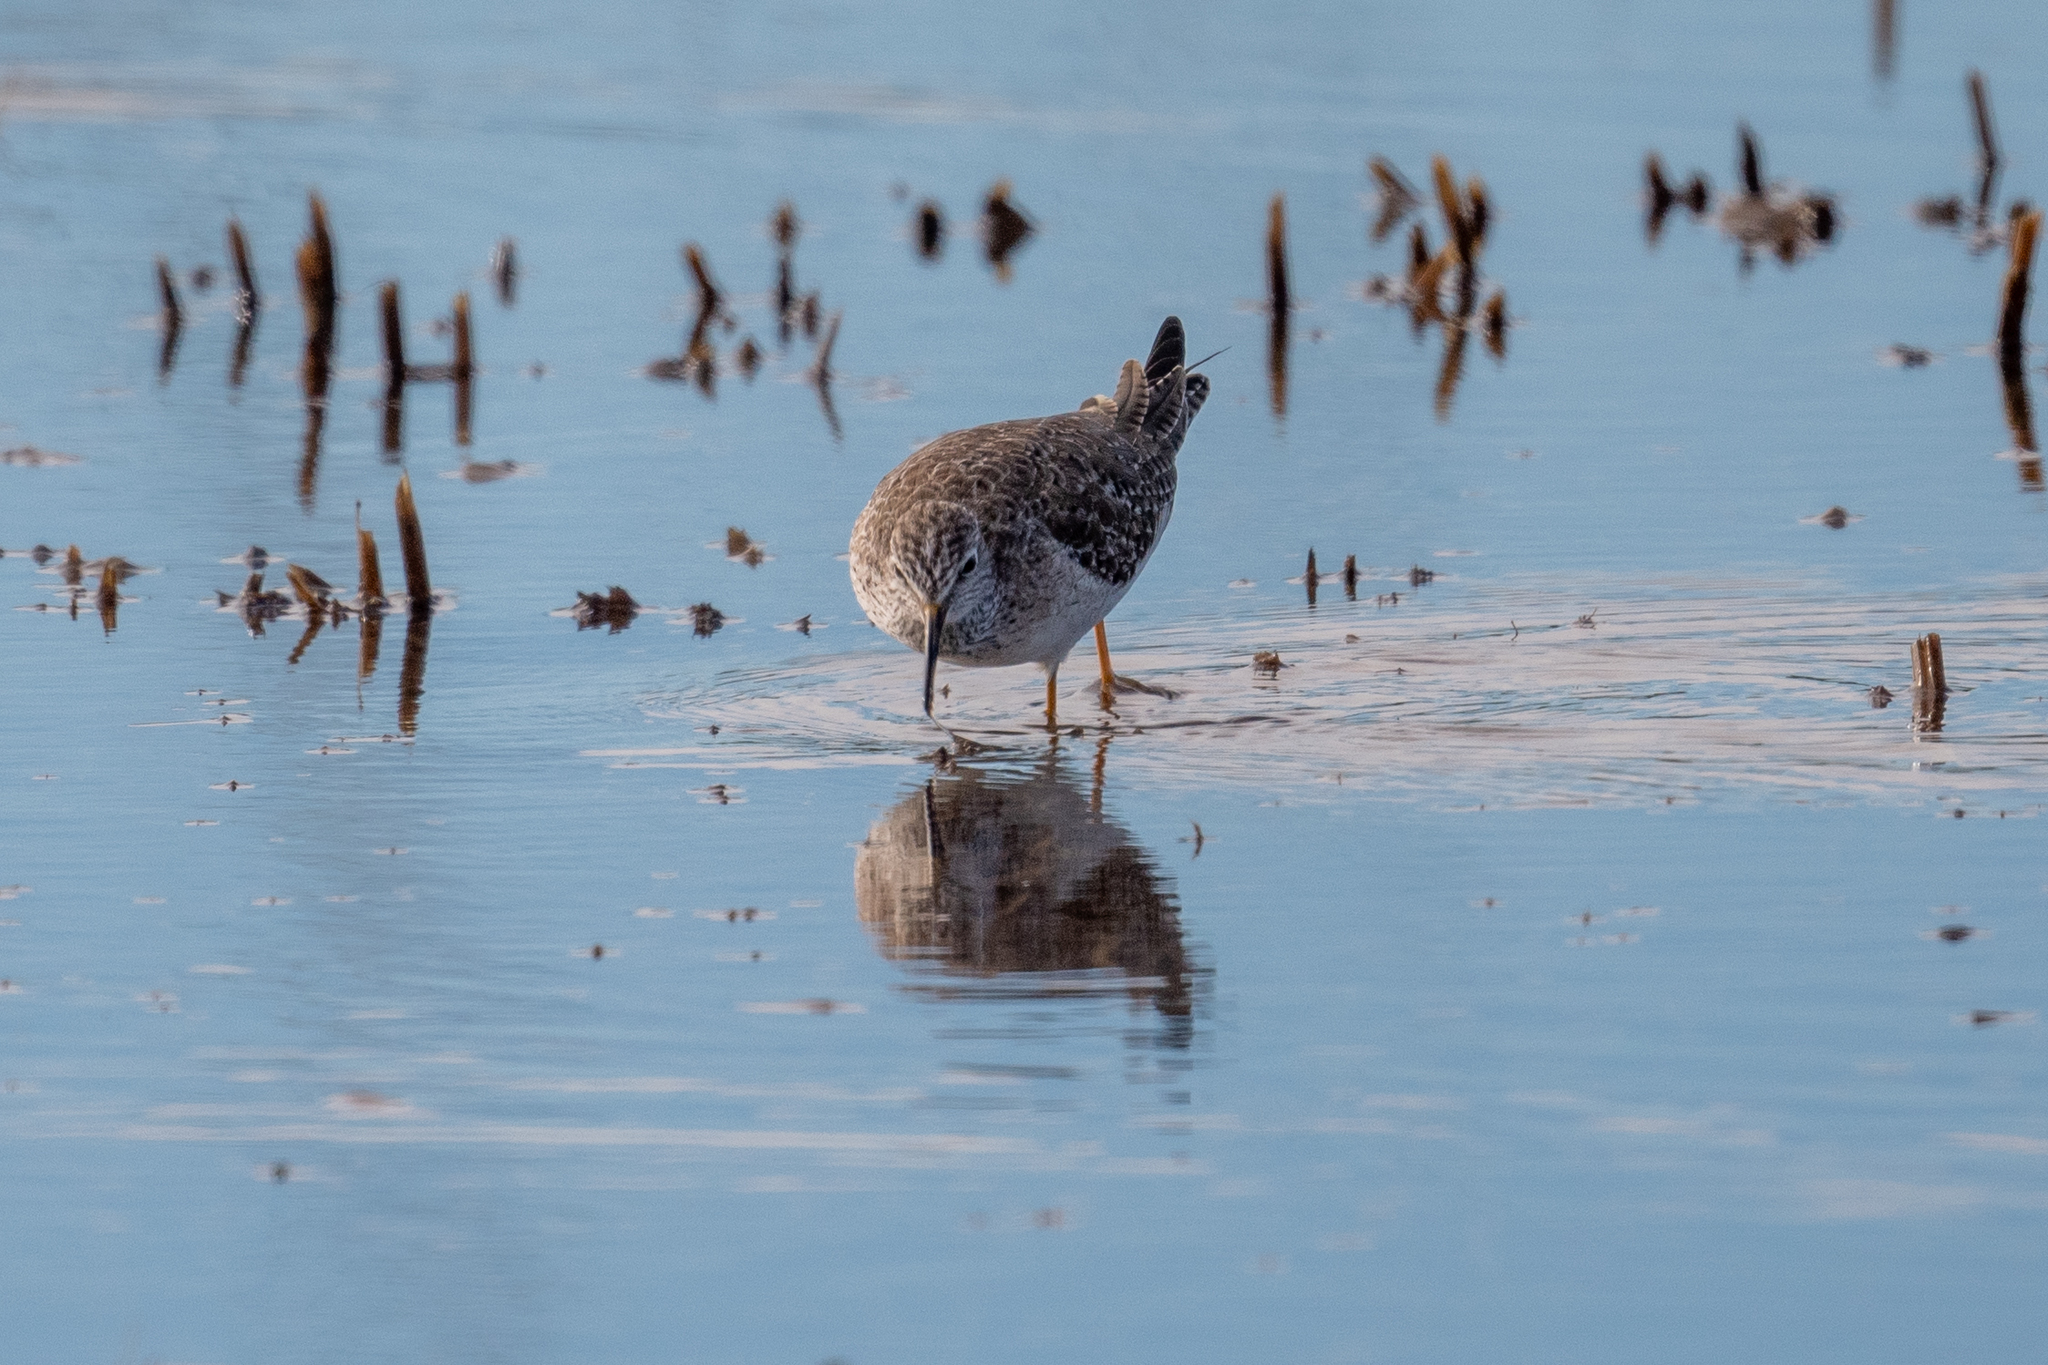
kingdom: Animalia
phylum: Chordata
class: Aves
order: Charadriiformes
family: Scolopacidae
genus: Tringa
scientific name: Tringa flavipes
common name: Lesser yellowlegs
